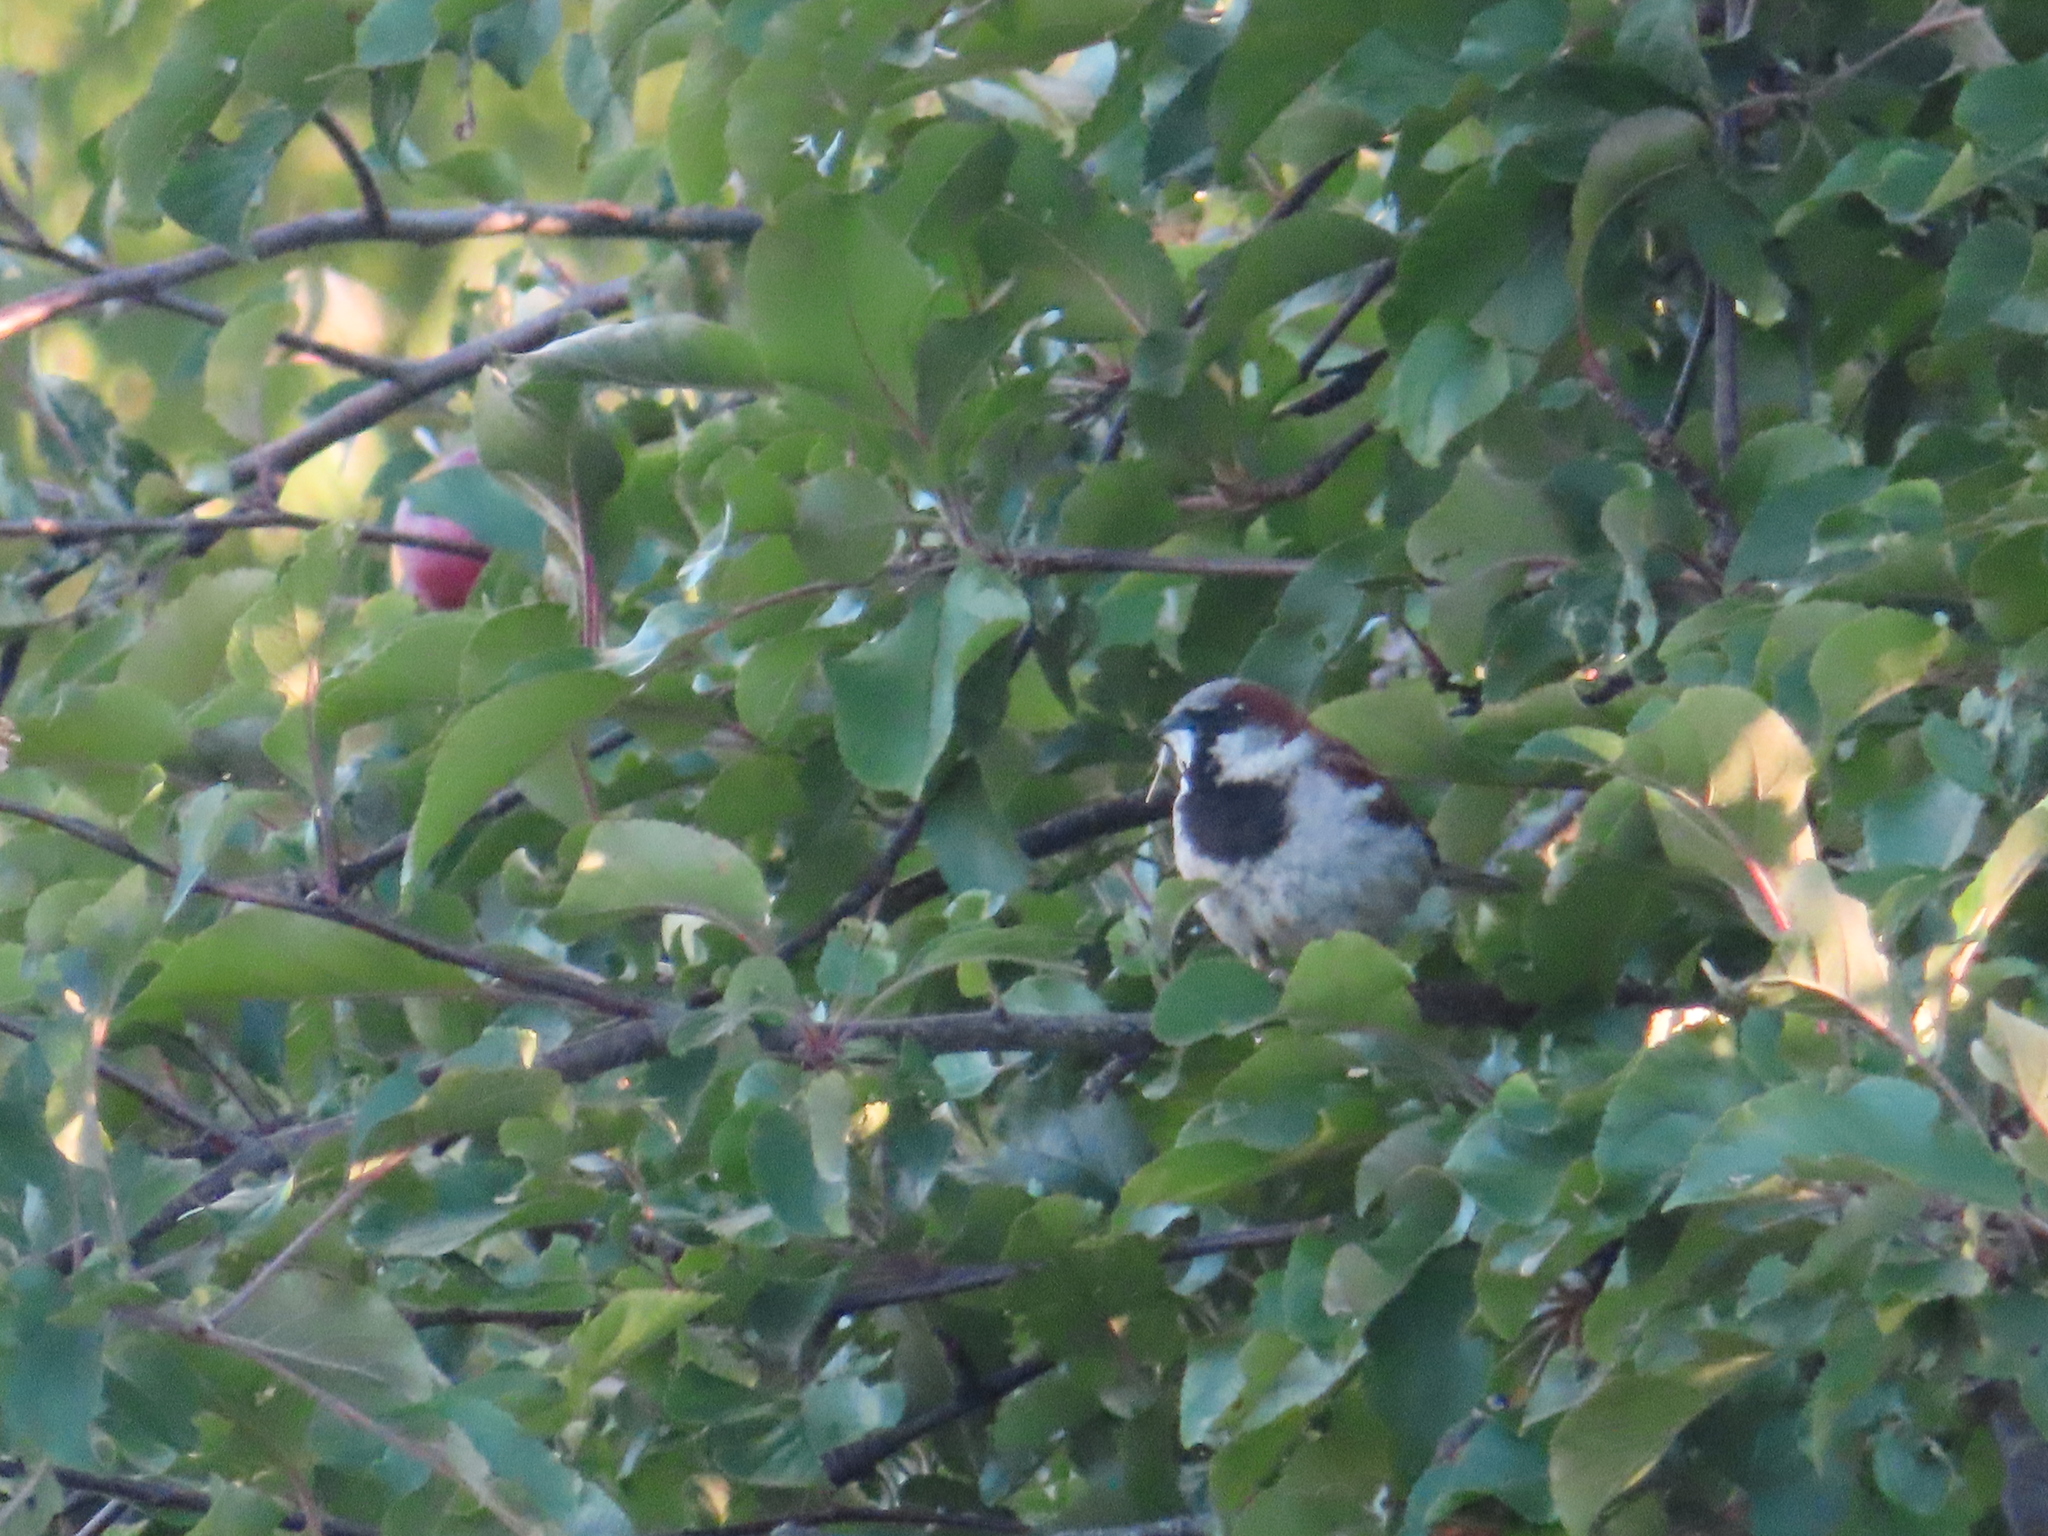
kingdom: Animalia
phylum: Chordata
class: Aves
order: Passeriformes
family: Passeridae
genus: Passer
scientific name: Passer domesticus
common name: House sparrow
